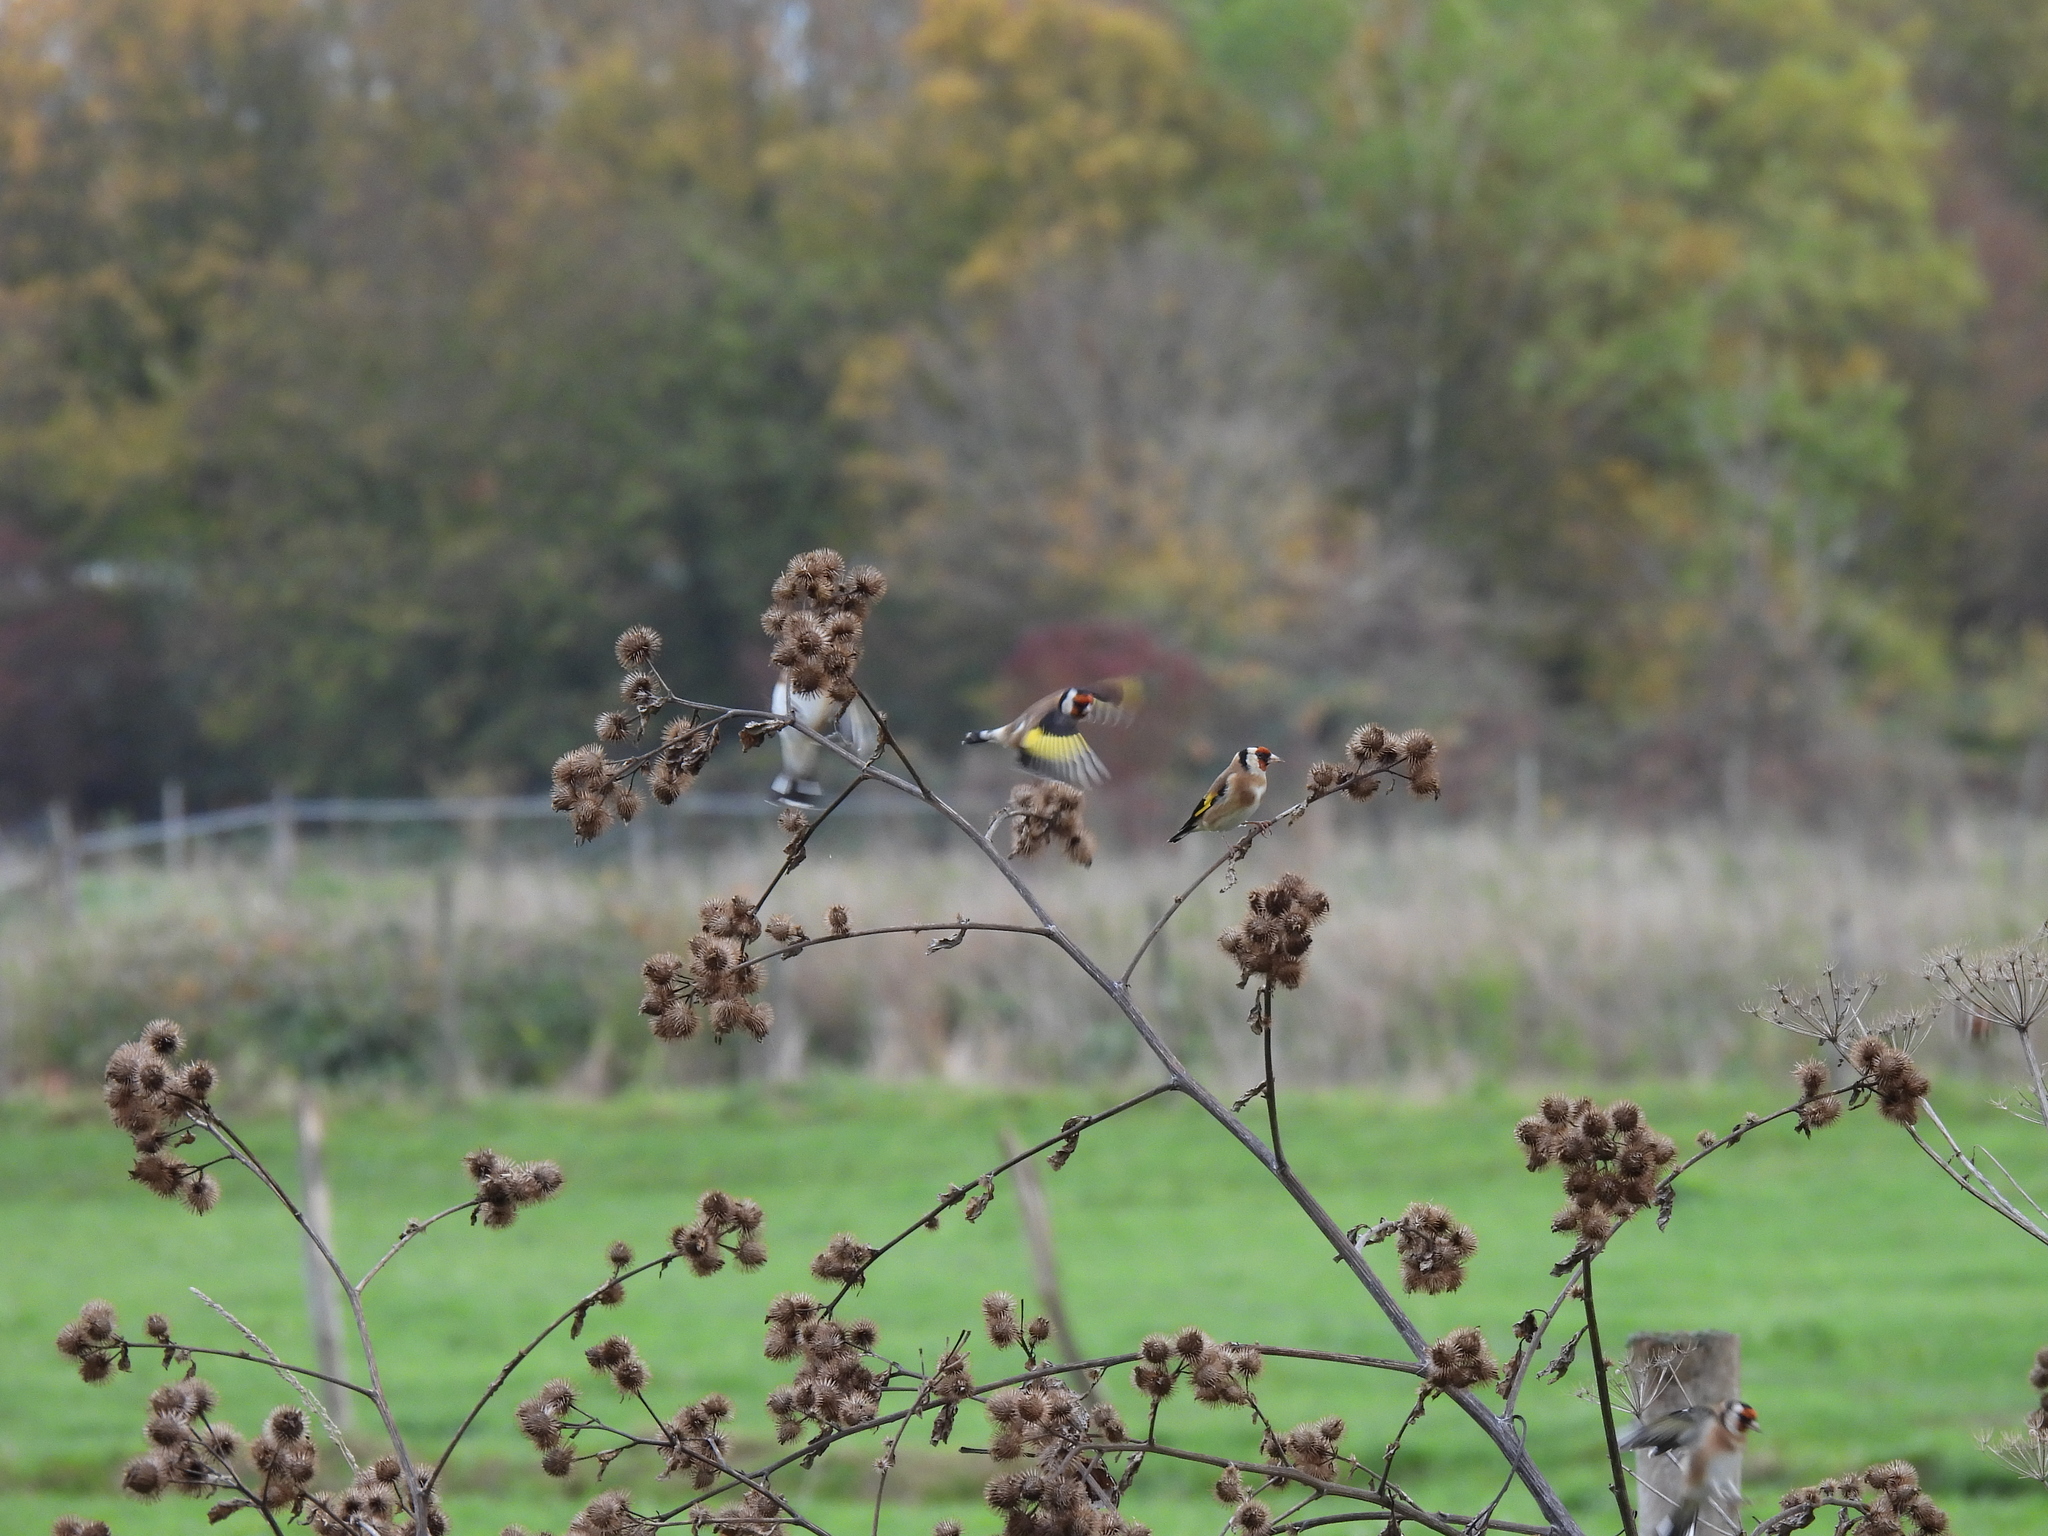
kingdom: Animalia
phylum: Chordata
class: Aves
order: Passeriformes
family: Fringillidae
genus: Carduelis
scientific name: Carduelis carduelis
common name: European goldfinch
